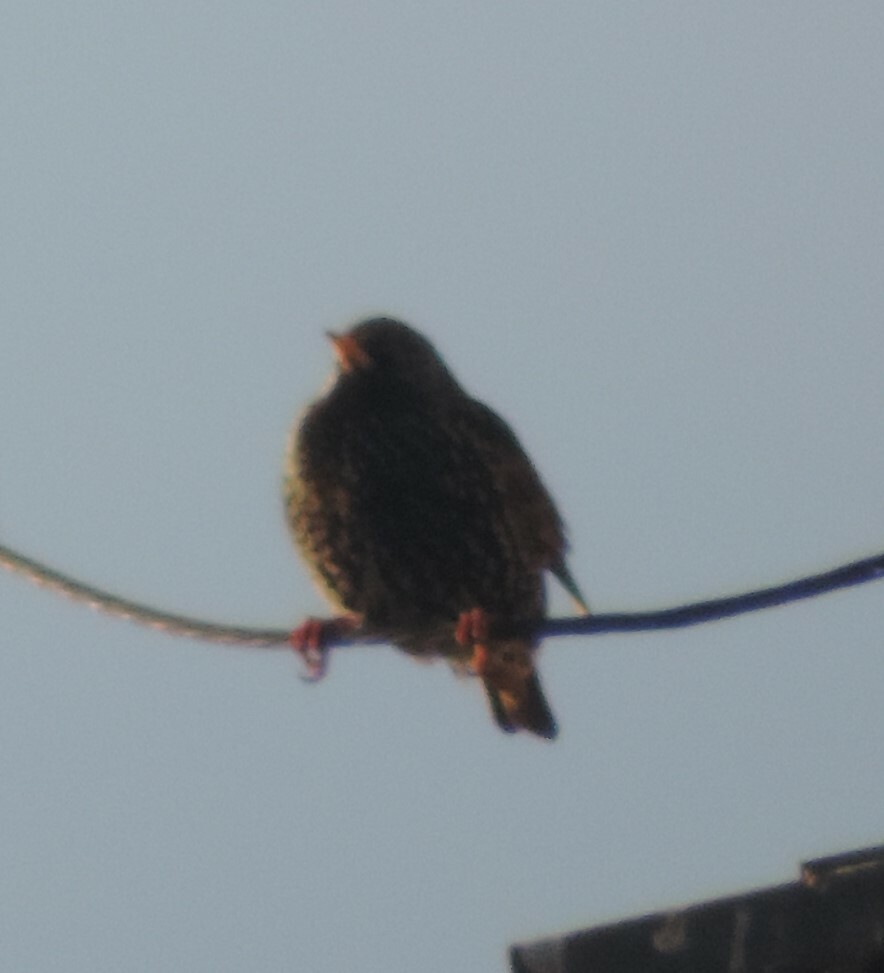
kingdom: Animalia
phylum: Chordata
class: Aves
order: Passeriformes
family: Sturnidae
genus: Sturnus
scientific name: Sturnus vulgaris
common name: Common starling
